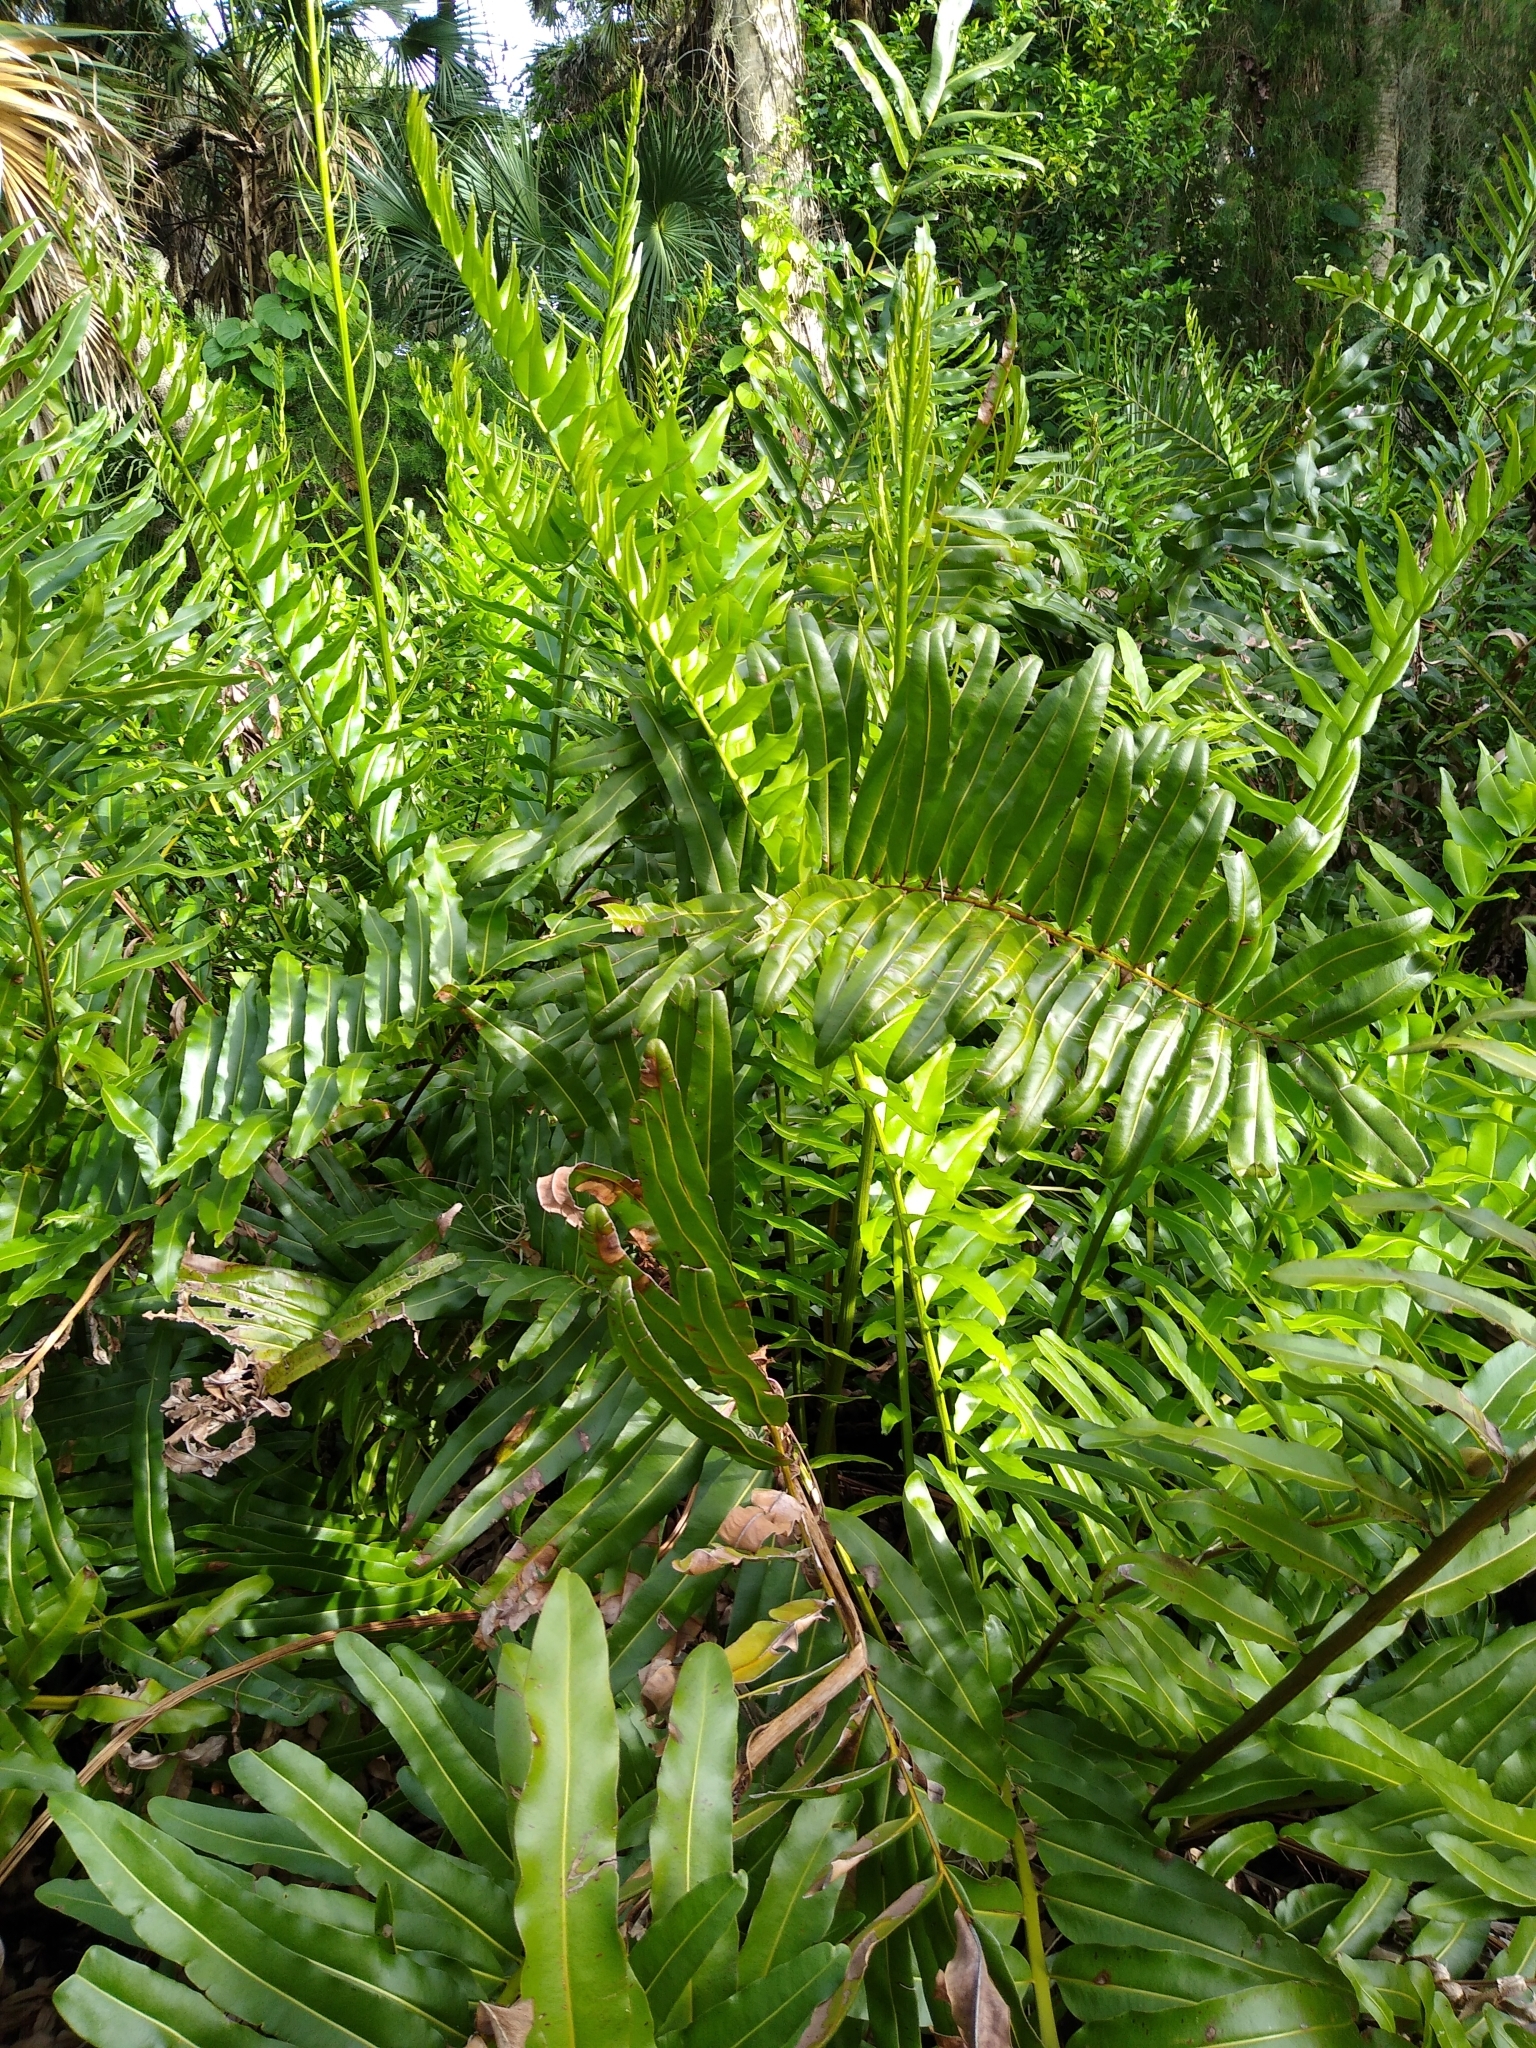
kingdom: Plantae
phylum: Tracheophyta
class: Polypodiopsida
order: Polypodiales
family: Pteridaceae
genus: Acrostichum
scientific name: Acrostichum danaeifolium
